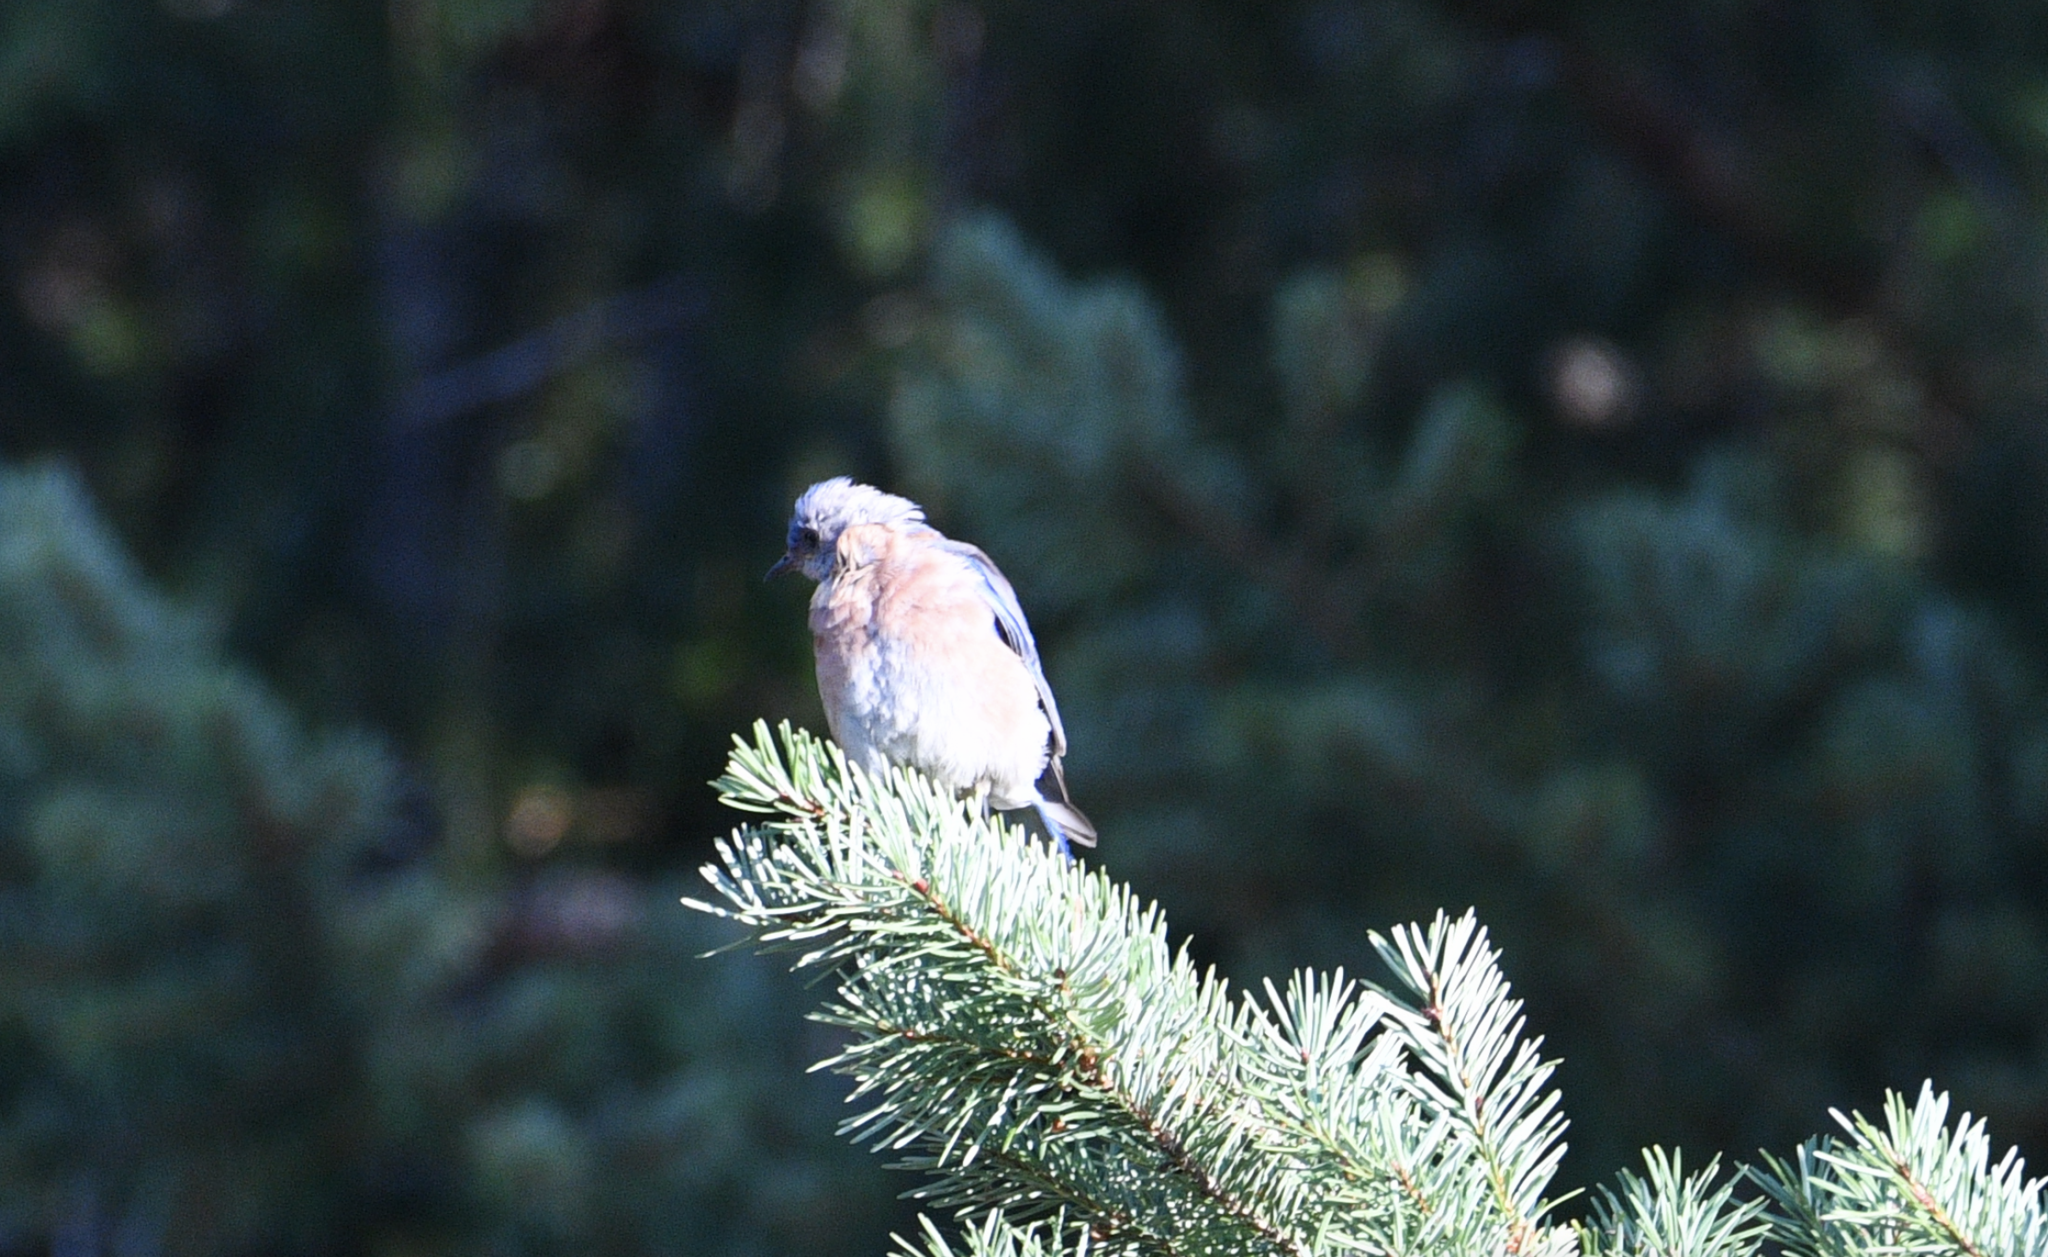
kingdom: Animalia
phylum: Chordata
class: Aves
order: Passeriformes
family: Turdidae
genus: Sialia
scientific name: Sialia mexicana
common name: Western bluebird
